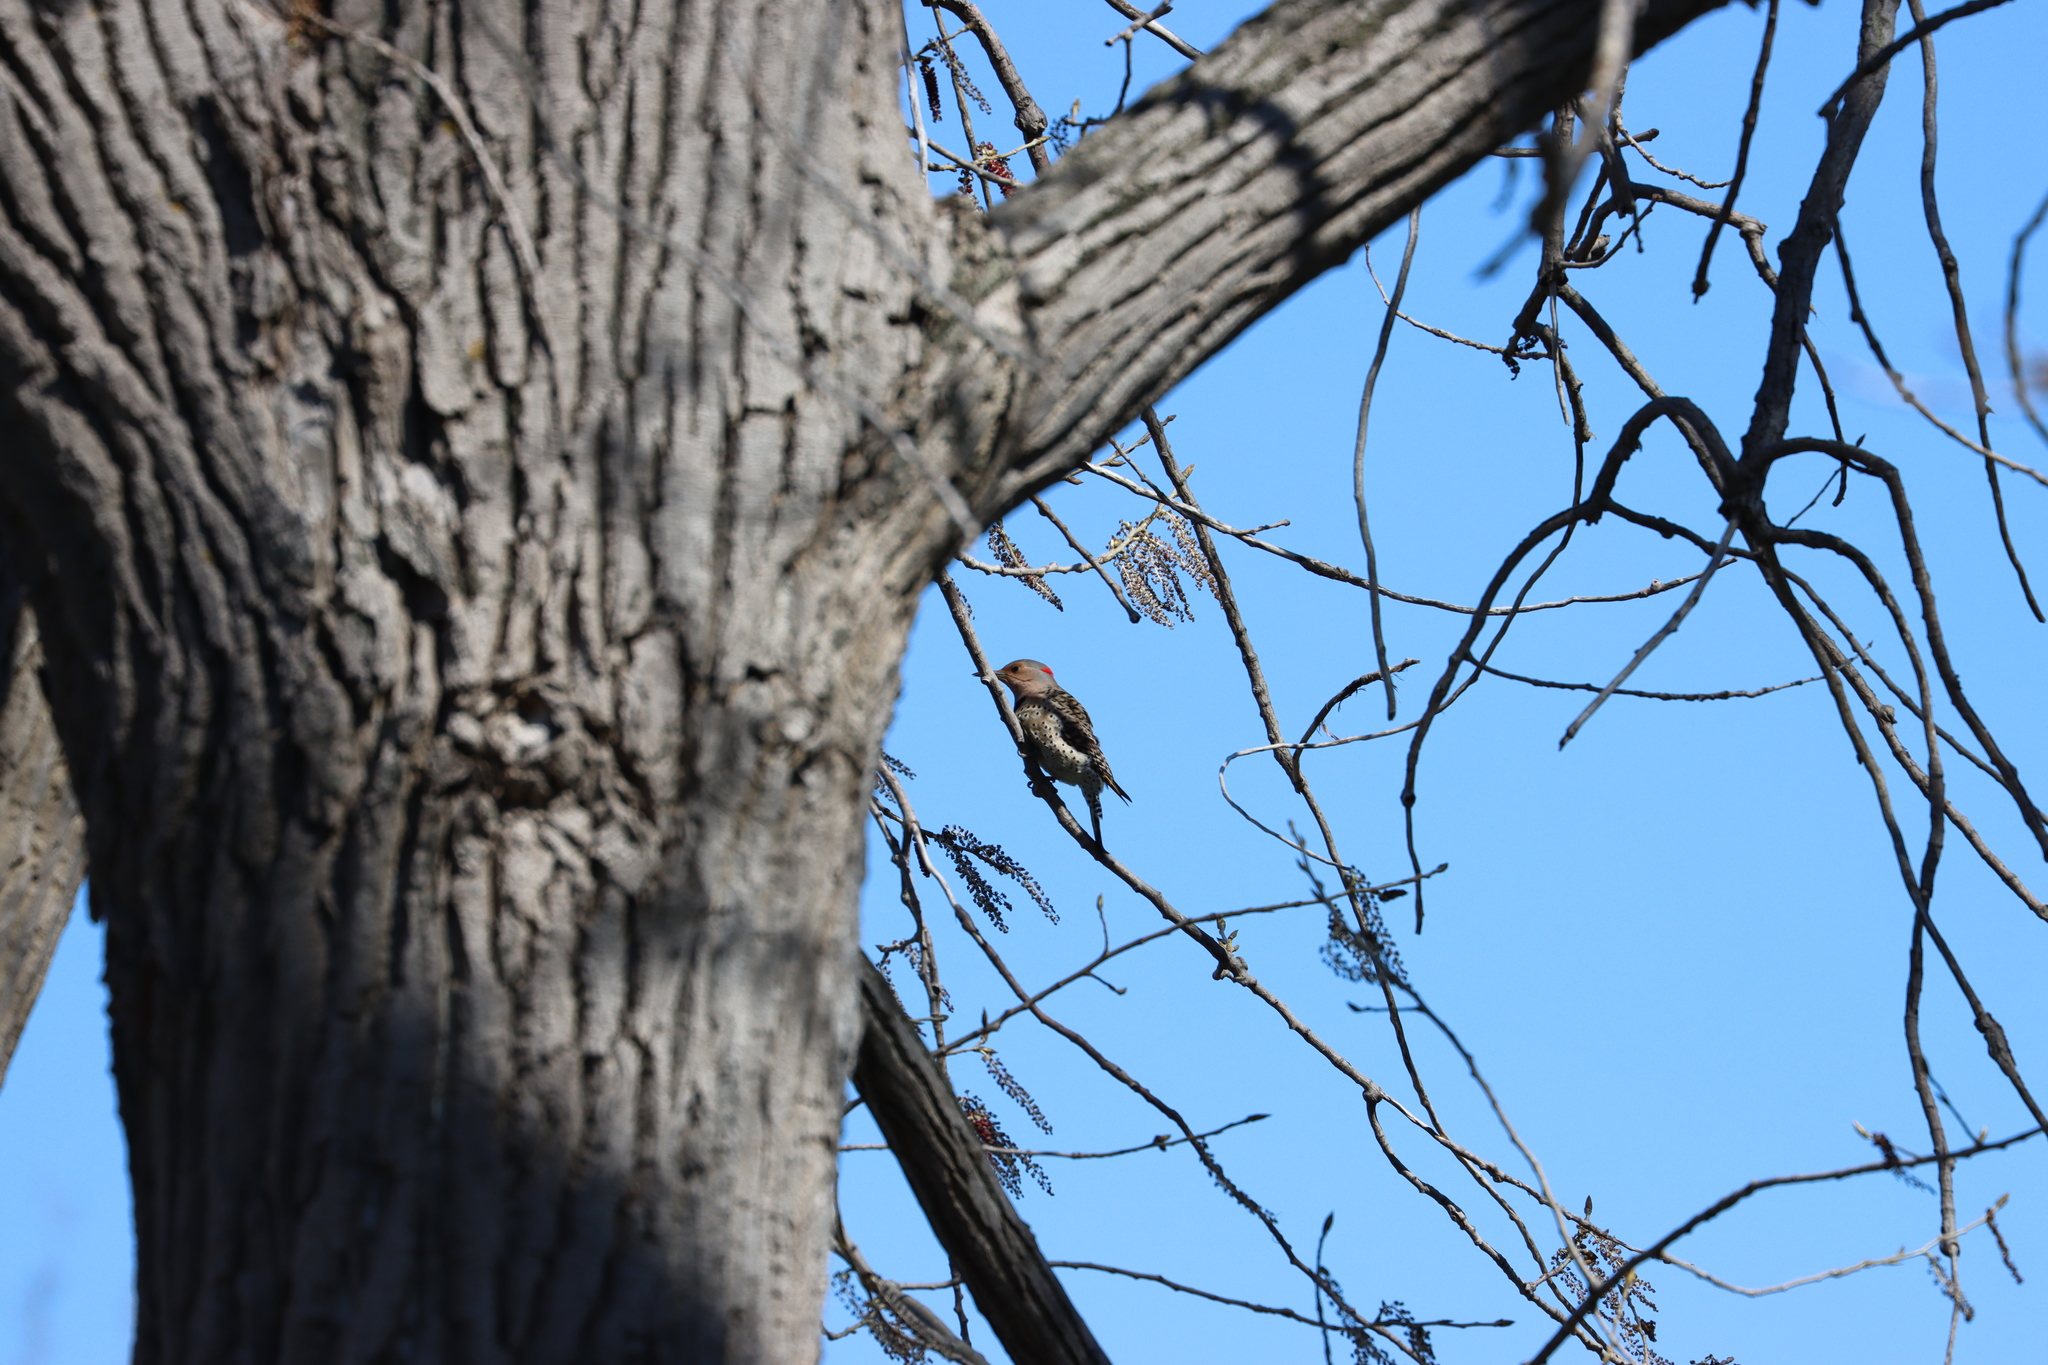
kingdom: Animalia
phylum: Chordata
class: Aves
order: Piciformes
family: Picidae
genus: Colaptes
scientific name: Colaptes auratus
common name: Northern flicker
